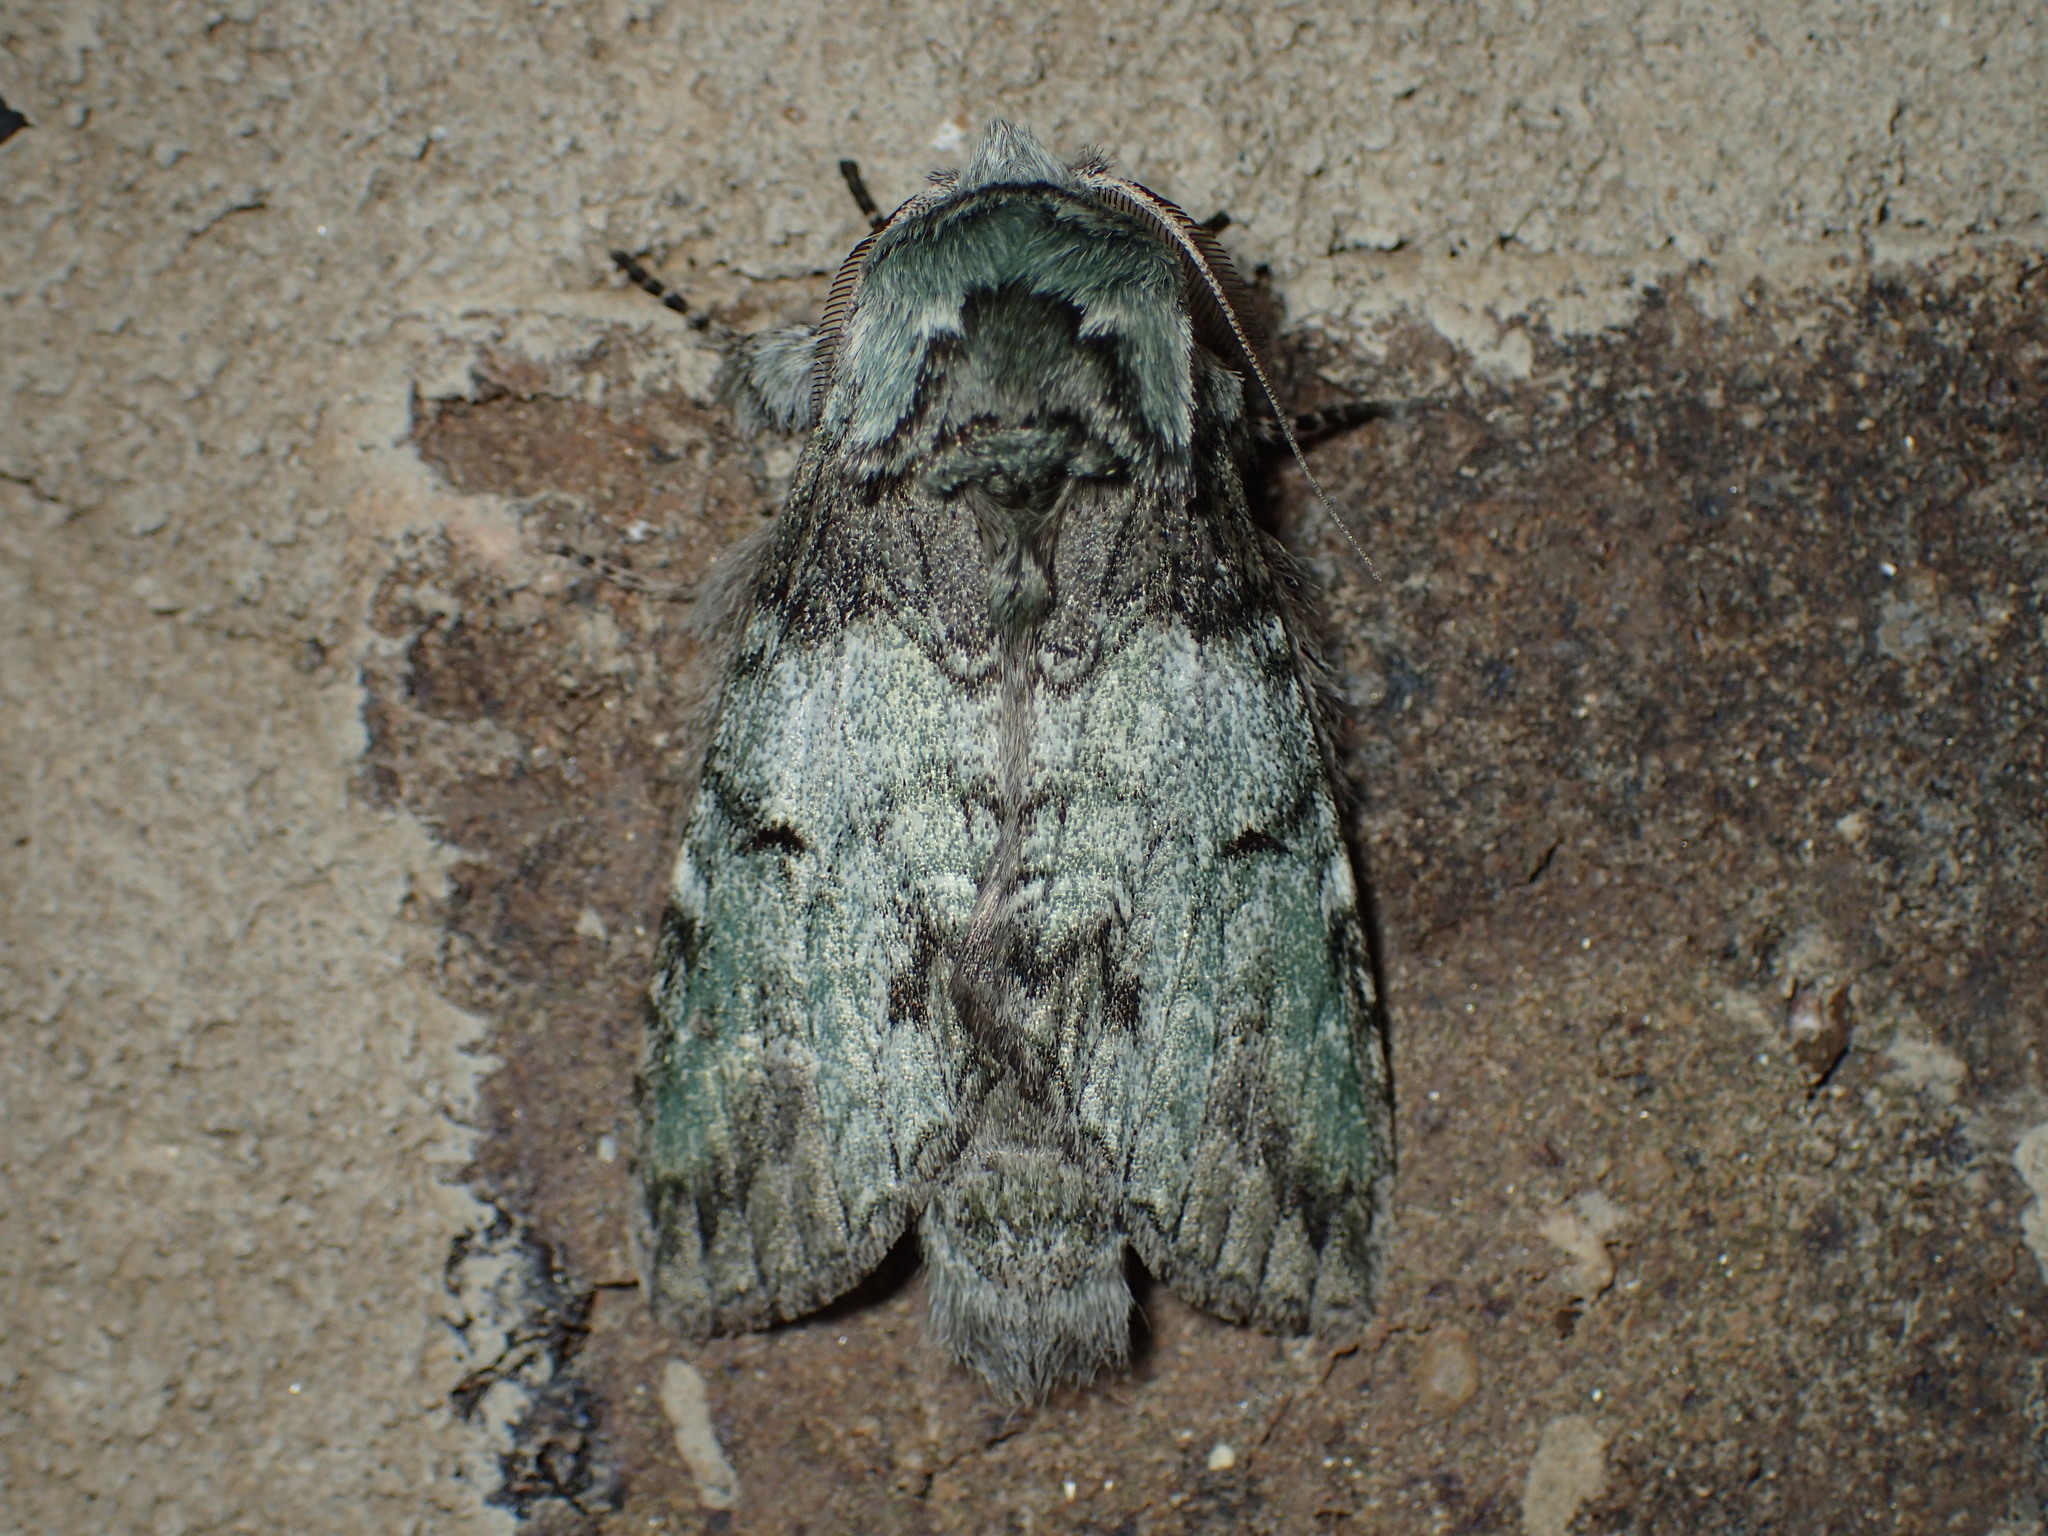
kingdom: Animalia
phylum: Arthropoda
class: Insecta
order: Lepidoptera
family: Notodontidae
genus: Macrurocampa
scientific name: Macrurocampa marthesia
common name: Mottled prominent
